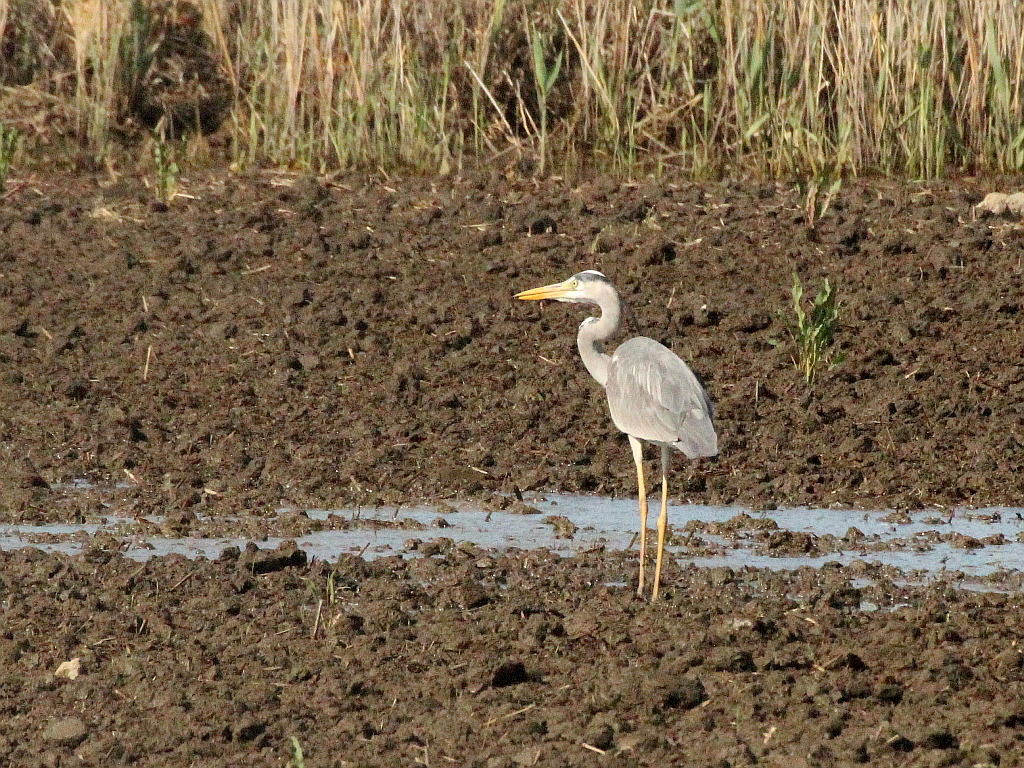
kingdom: Animalia
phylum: Chordata
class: Aves
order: Pelecaniformes
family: Ardeidae
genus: Ardea
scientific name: Ardea cinerea
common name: Grey heron
